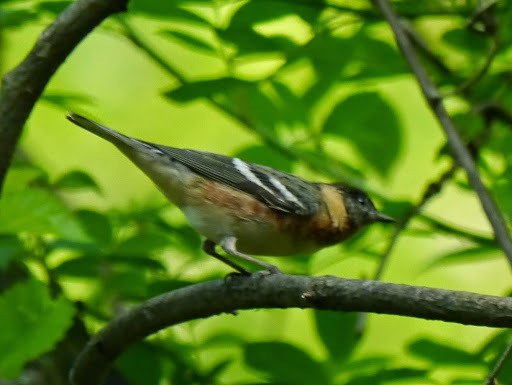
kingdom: Animalia
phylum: Chordata
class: Aves
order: Passeriformes
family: Parulidae
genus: Setophaga
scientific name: Setophaga castanea
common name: Bay-breasted warbler
